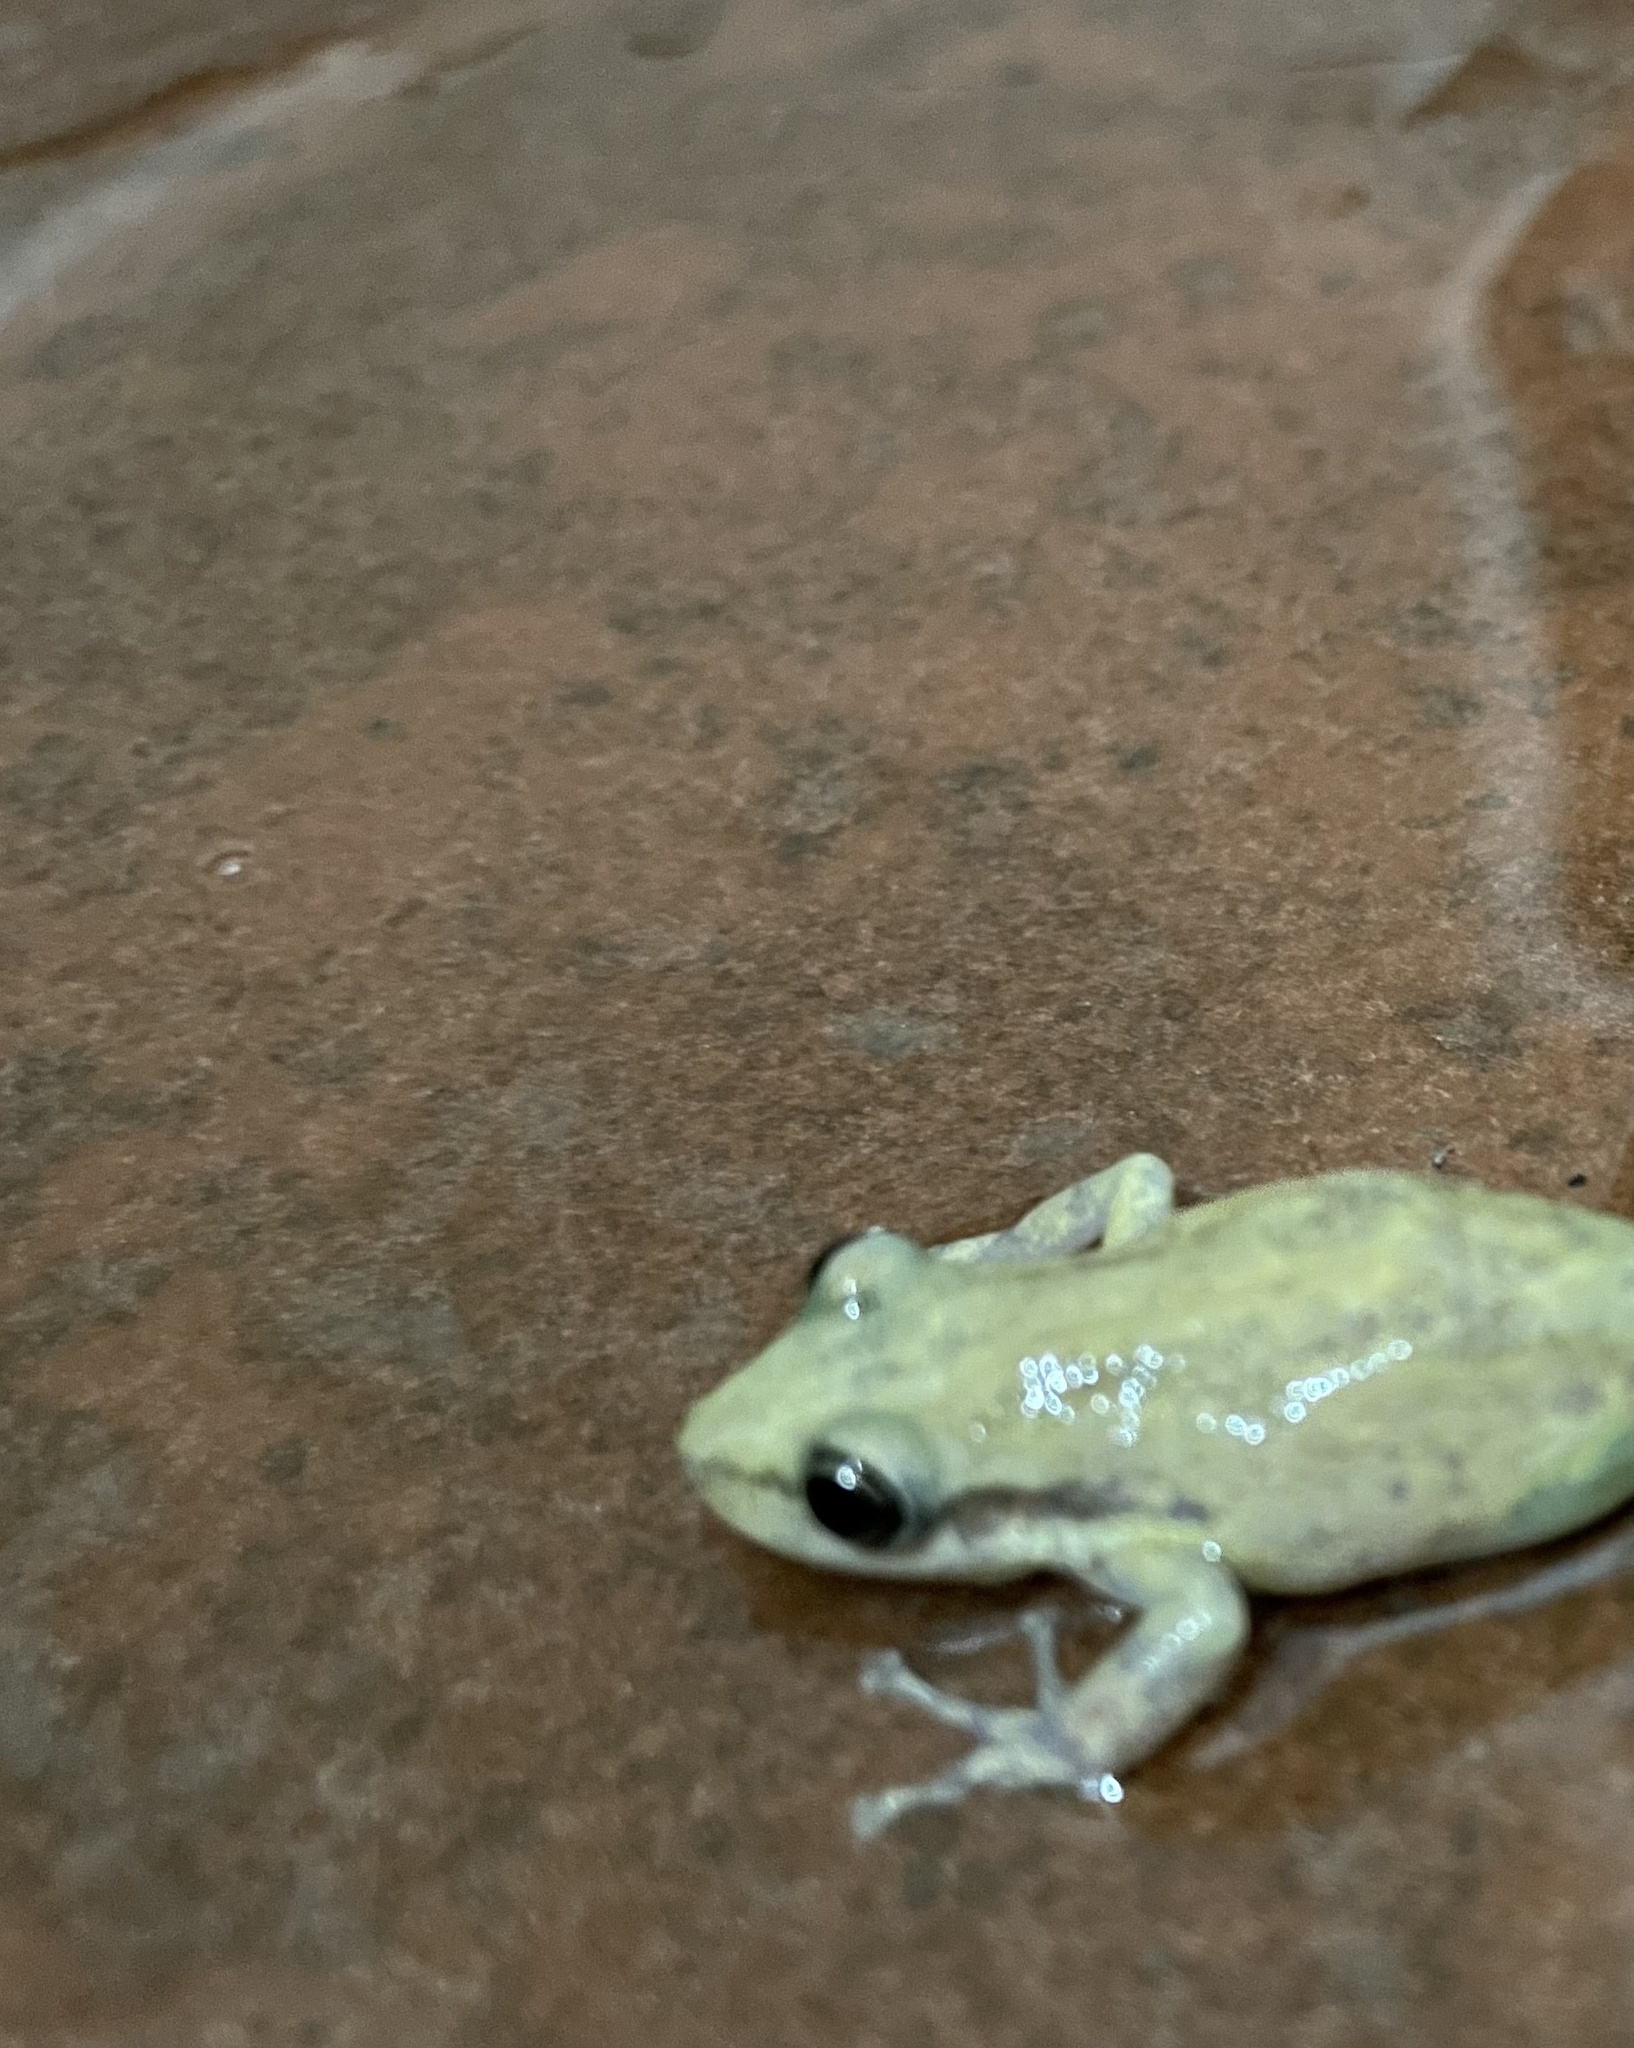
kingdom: Animalia
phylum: Chordata
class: Amphibia
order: Anura
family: Hylidae
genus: Scinax
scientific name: Scinax fuscomarginatus
